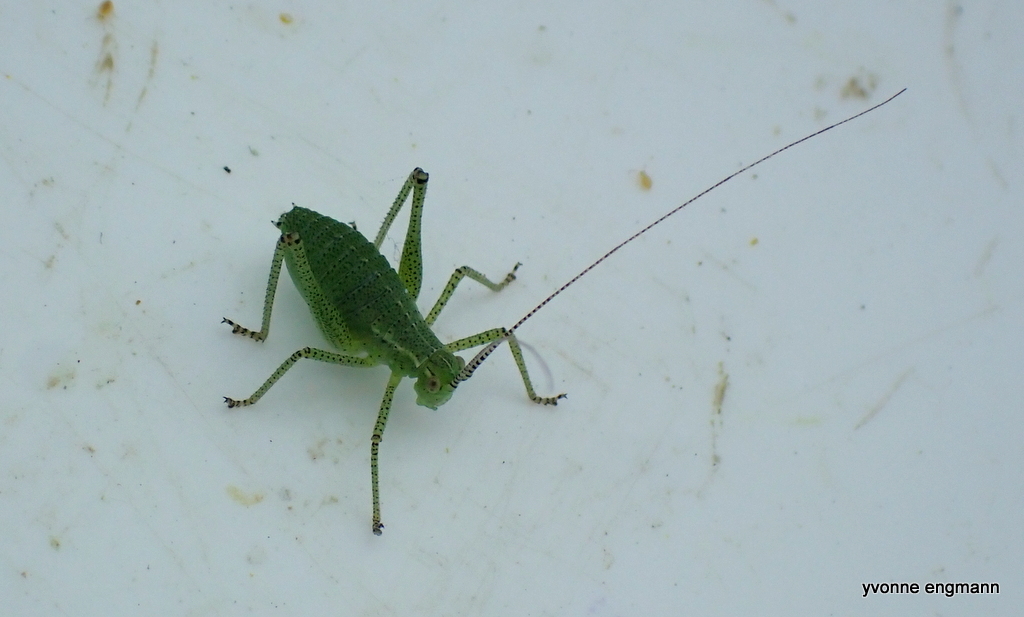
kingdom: Animalia
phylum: Arthropoda
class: Insecta
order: Orthoptera
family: Tettigoniidae
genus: Leptophyes
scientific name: Leptophyes punctatissima
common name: Speckled bush-cricket
